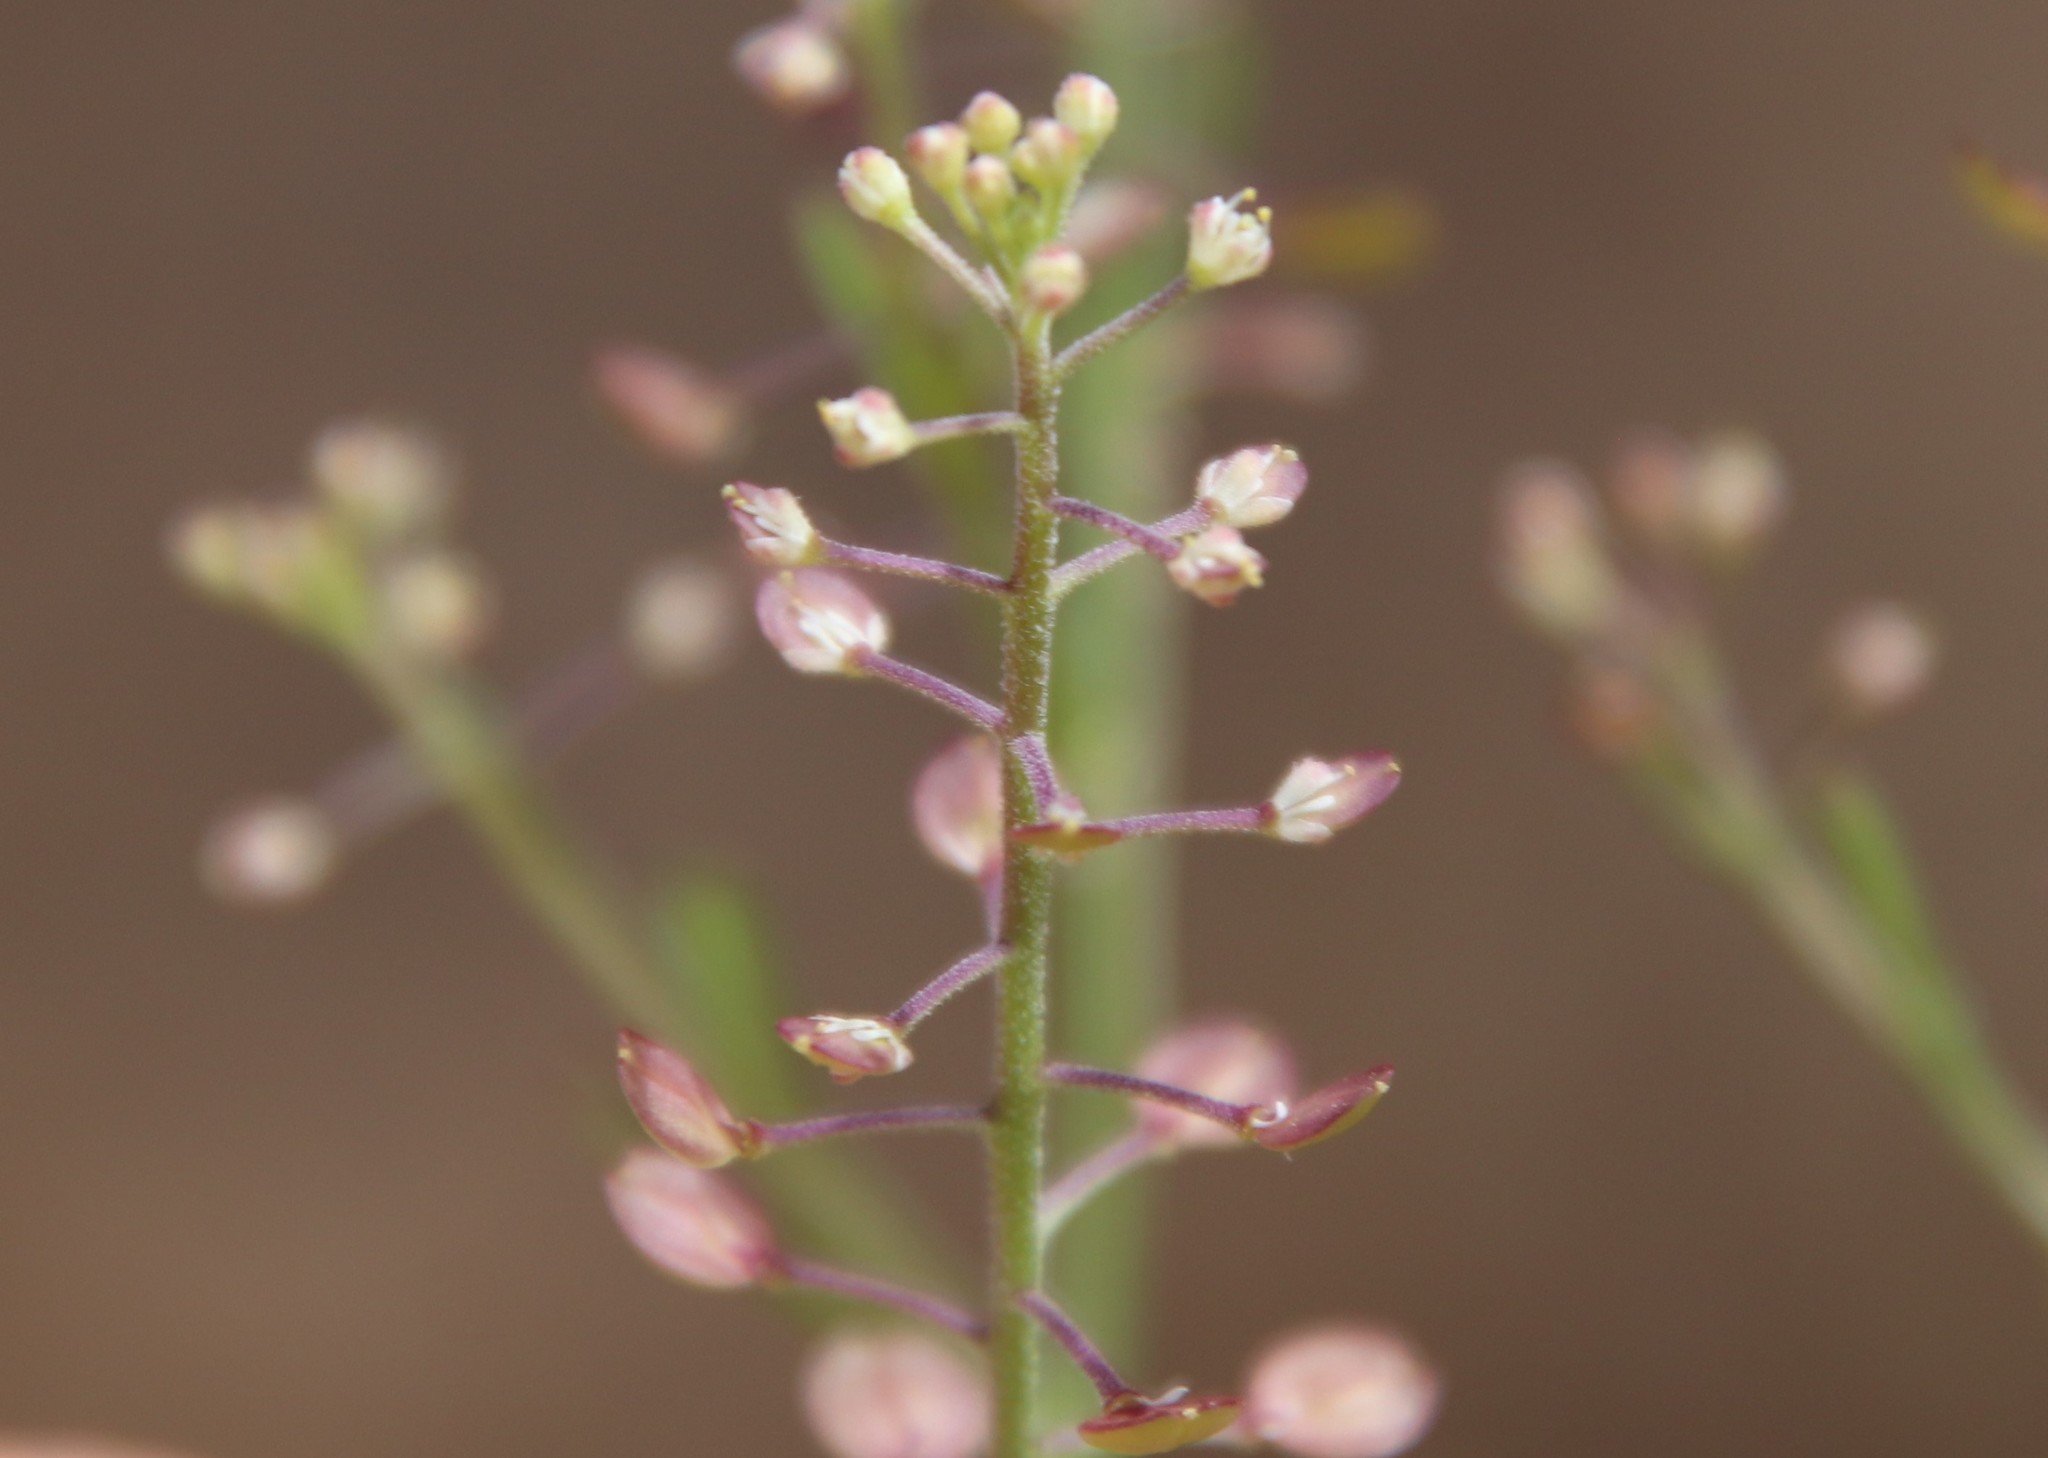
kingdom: Plantae
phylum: Tracheophyta
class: Magnoliopsida
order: Brassicales
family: Brassicaceae
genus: Lepidium
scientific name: Lepidium virginicum
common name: Least pepperwort
